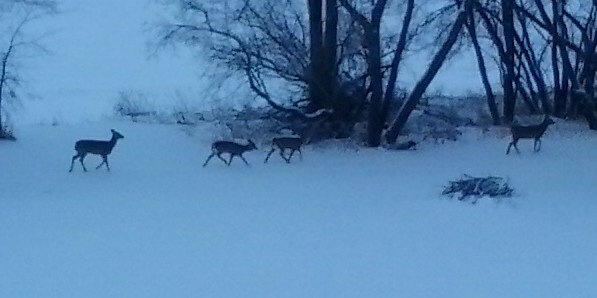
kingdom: Animalia
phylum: Chordata
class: Mammalia
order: Artiodactyla
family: Cervidae
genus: Odocoileus
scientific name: Odocoileus virginianus
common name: White-tailed deer
